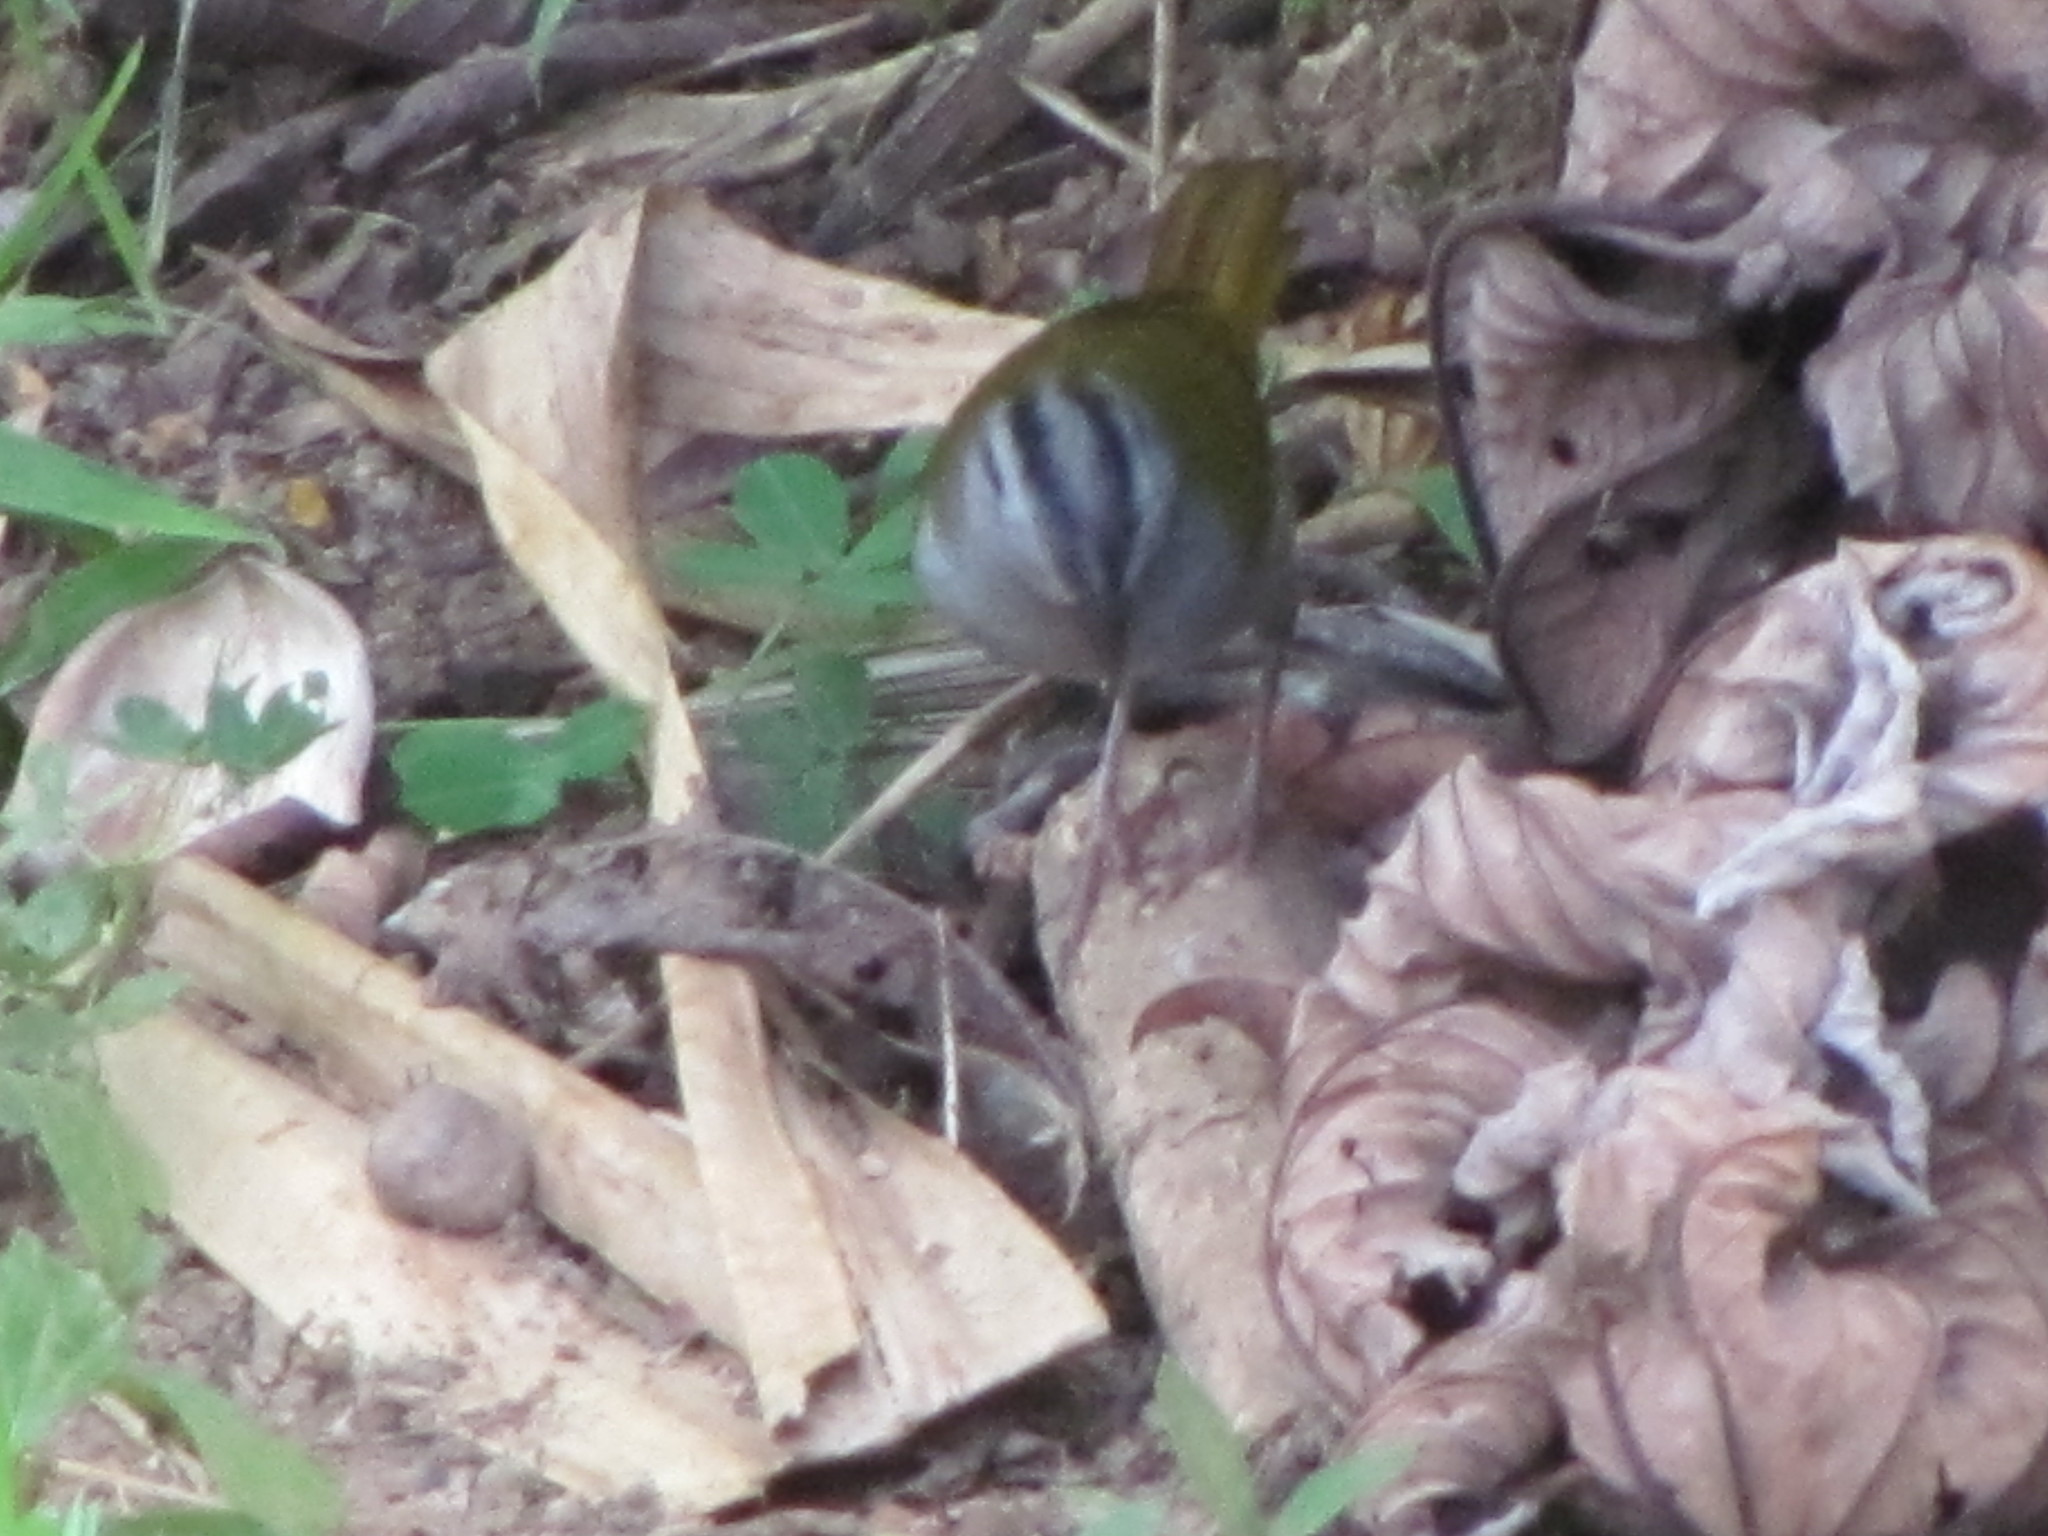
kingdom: Animalia
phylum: Chordata
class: Aves
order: Passeriformes
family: Passerellidae
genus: Arremonops
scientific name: Arremonops conirostris
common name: Black-striped sparrow
